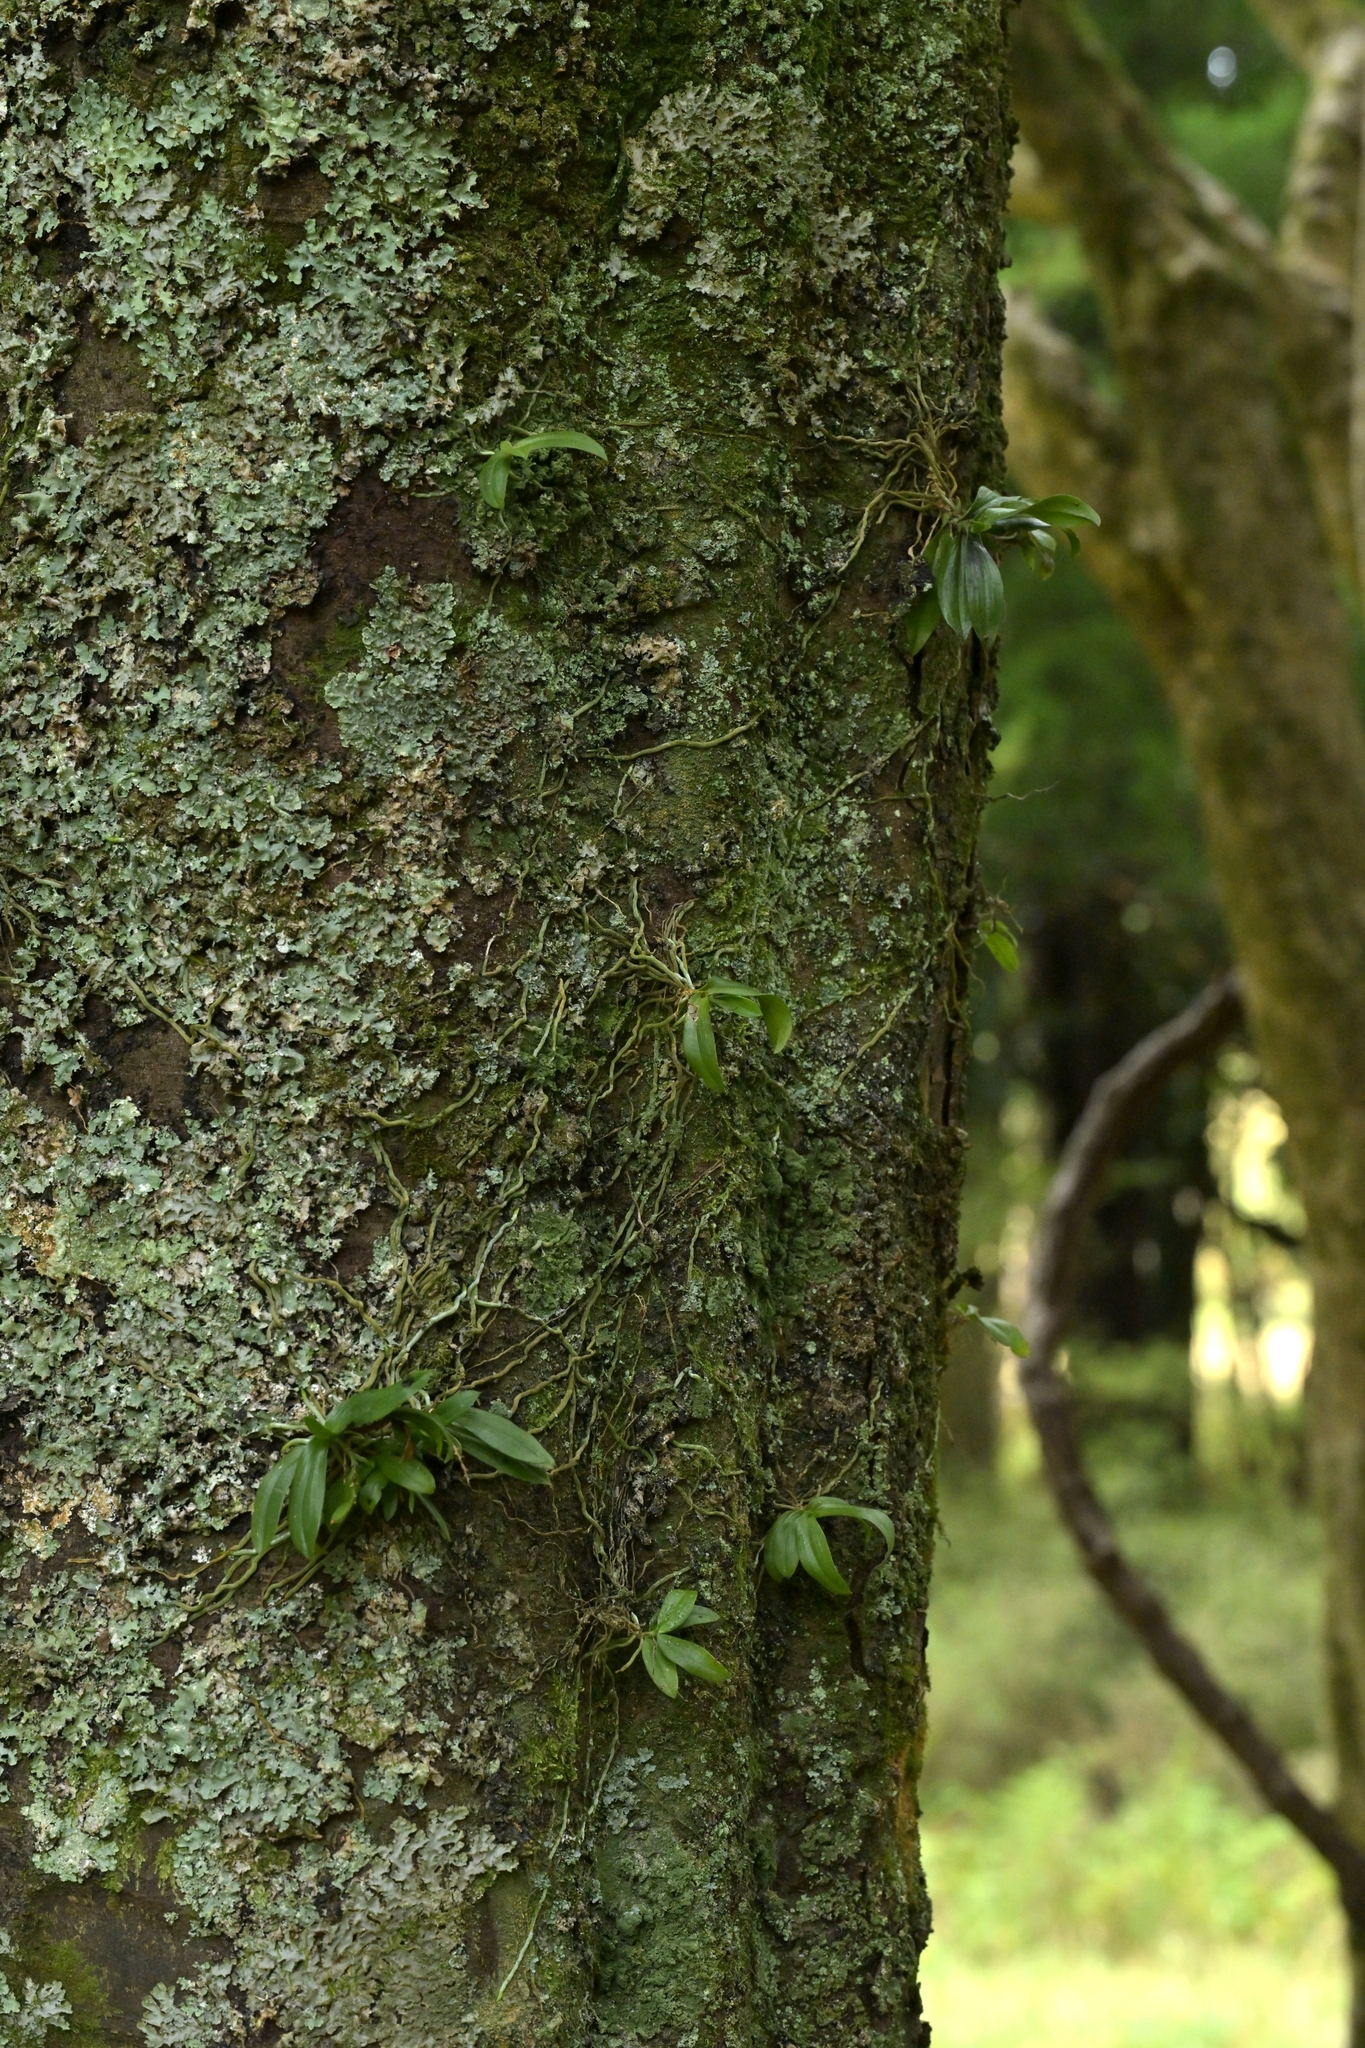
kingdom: Plantae
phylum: Tracheophyta
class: Liliopsida
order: Asparagales
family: Orchidaceae
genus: Drymoanthus
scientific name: Drymoanthus adversus
